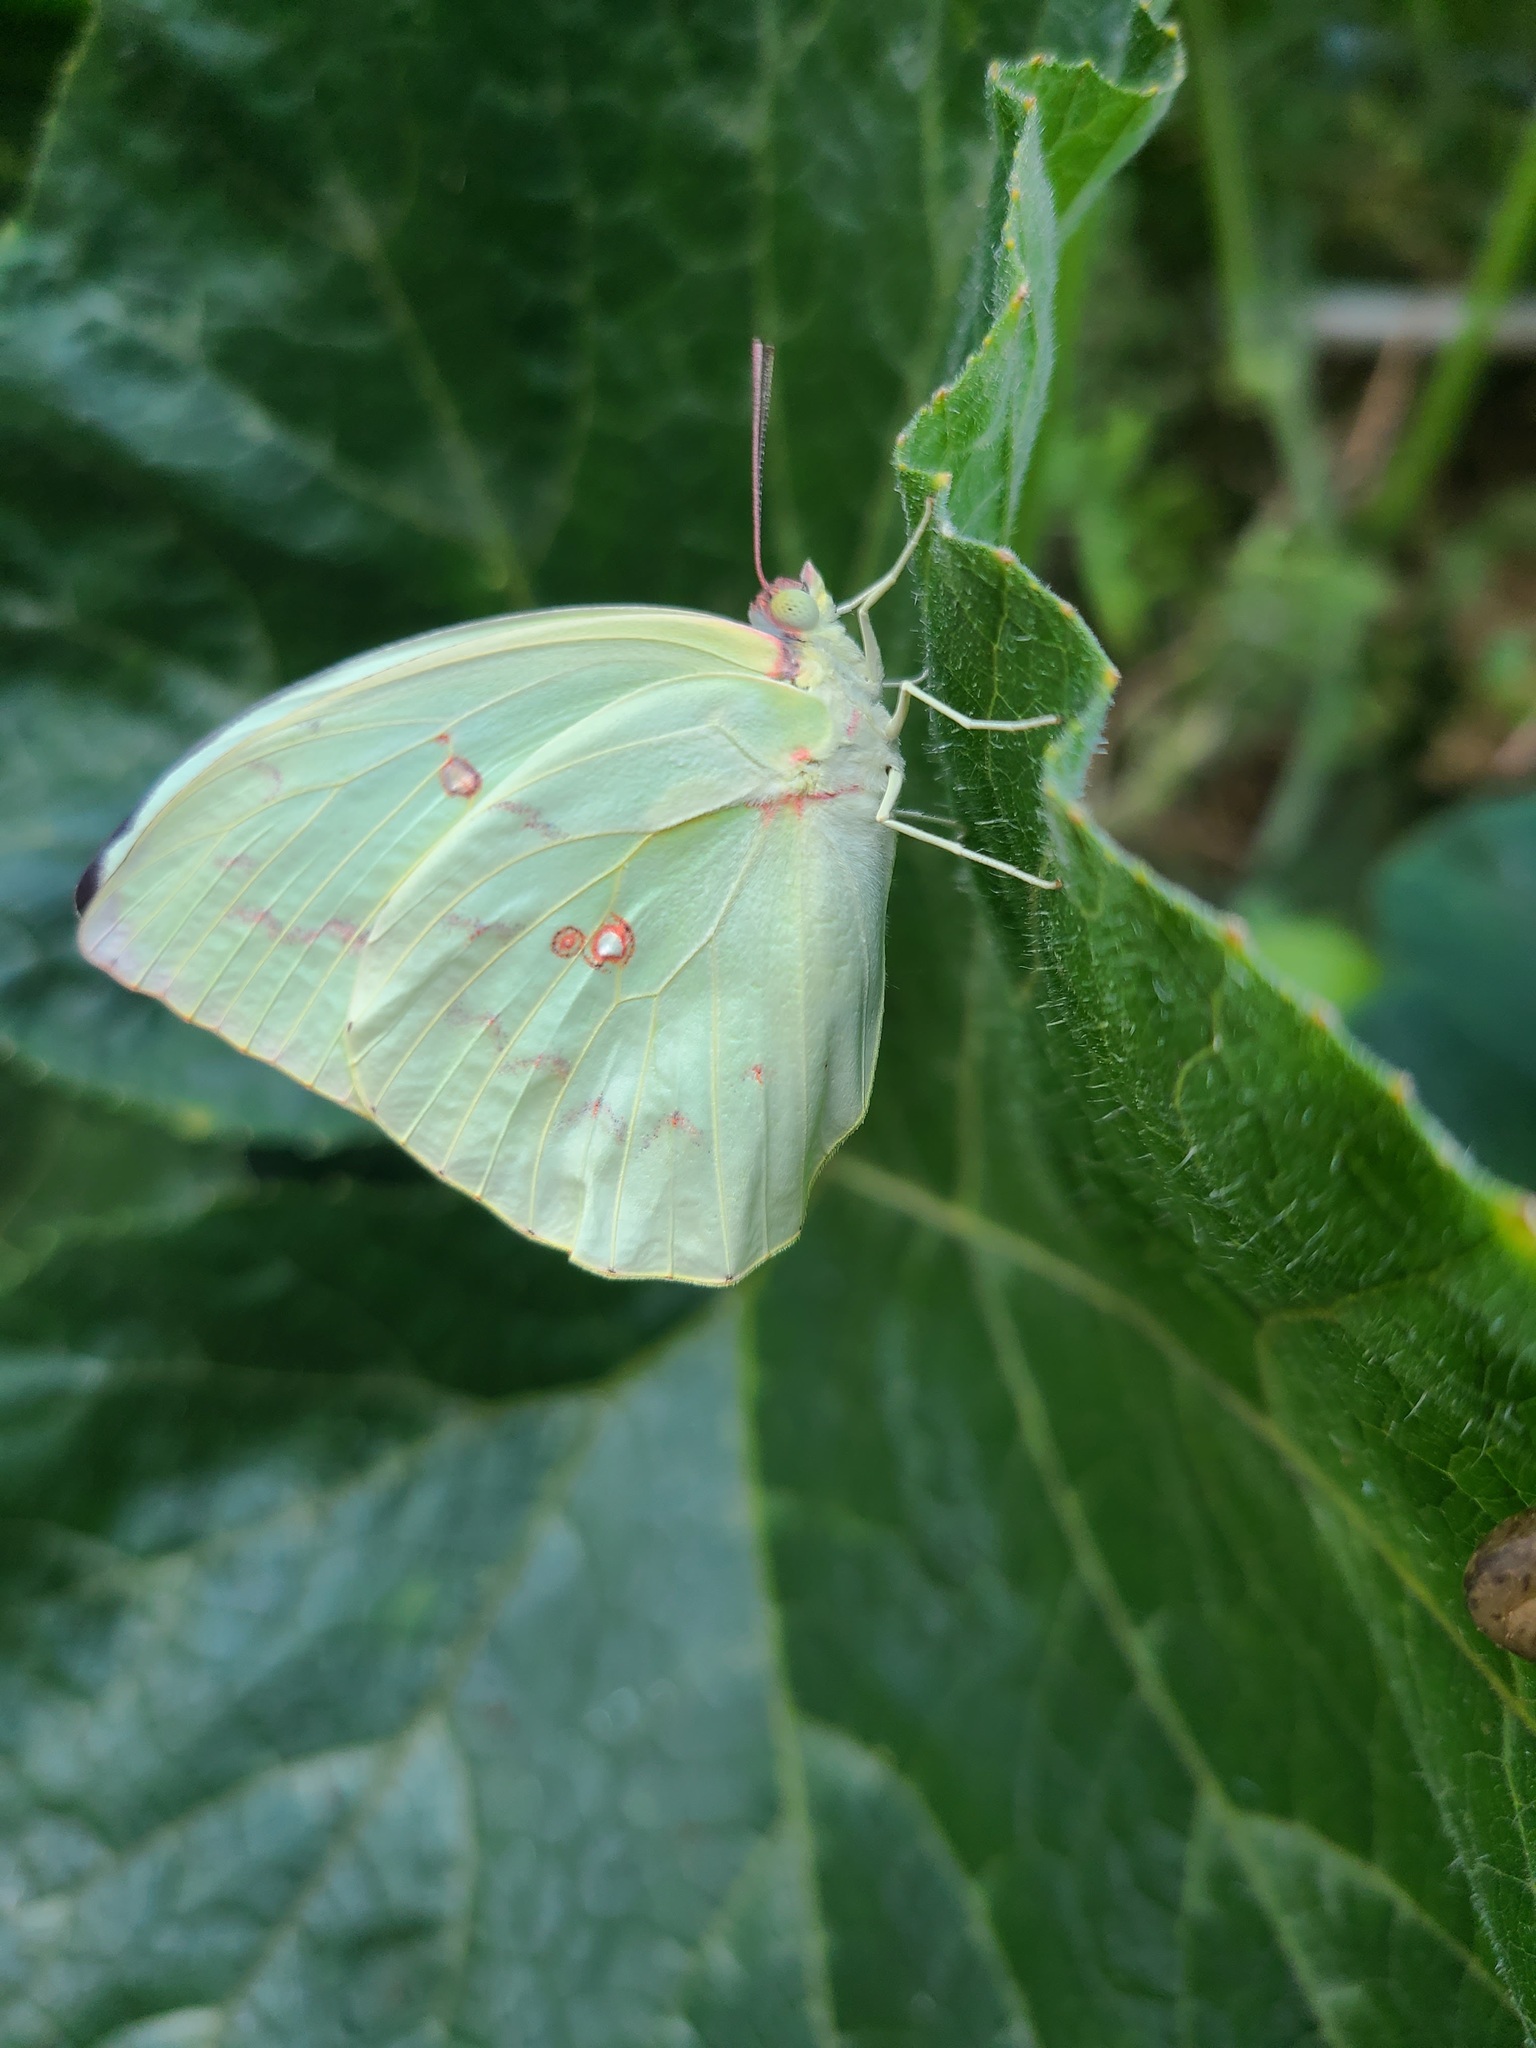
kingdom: Animalia
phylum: Arthropoda
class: Insecta
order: Lepidoptera
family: Pieridae
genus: Catopsilia
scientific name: Catopsilia pomona
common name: Common emigrant
